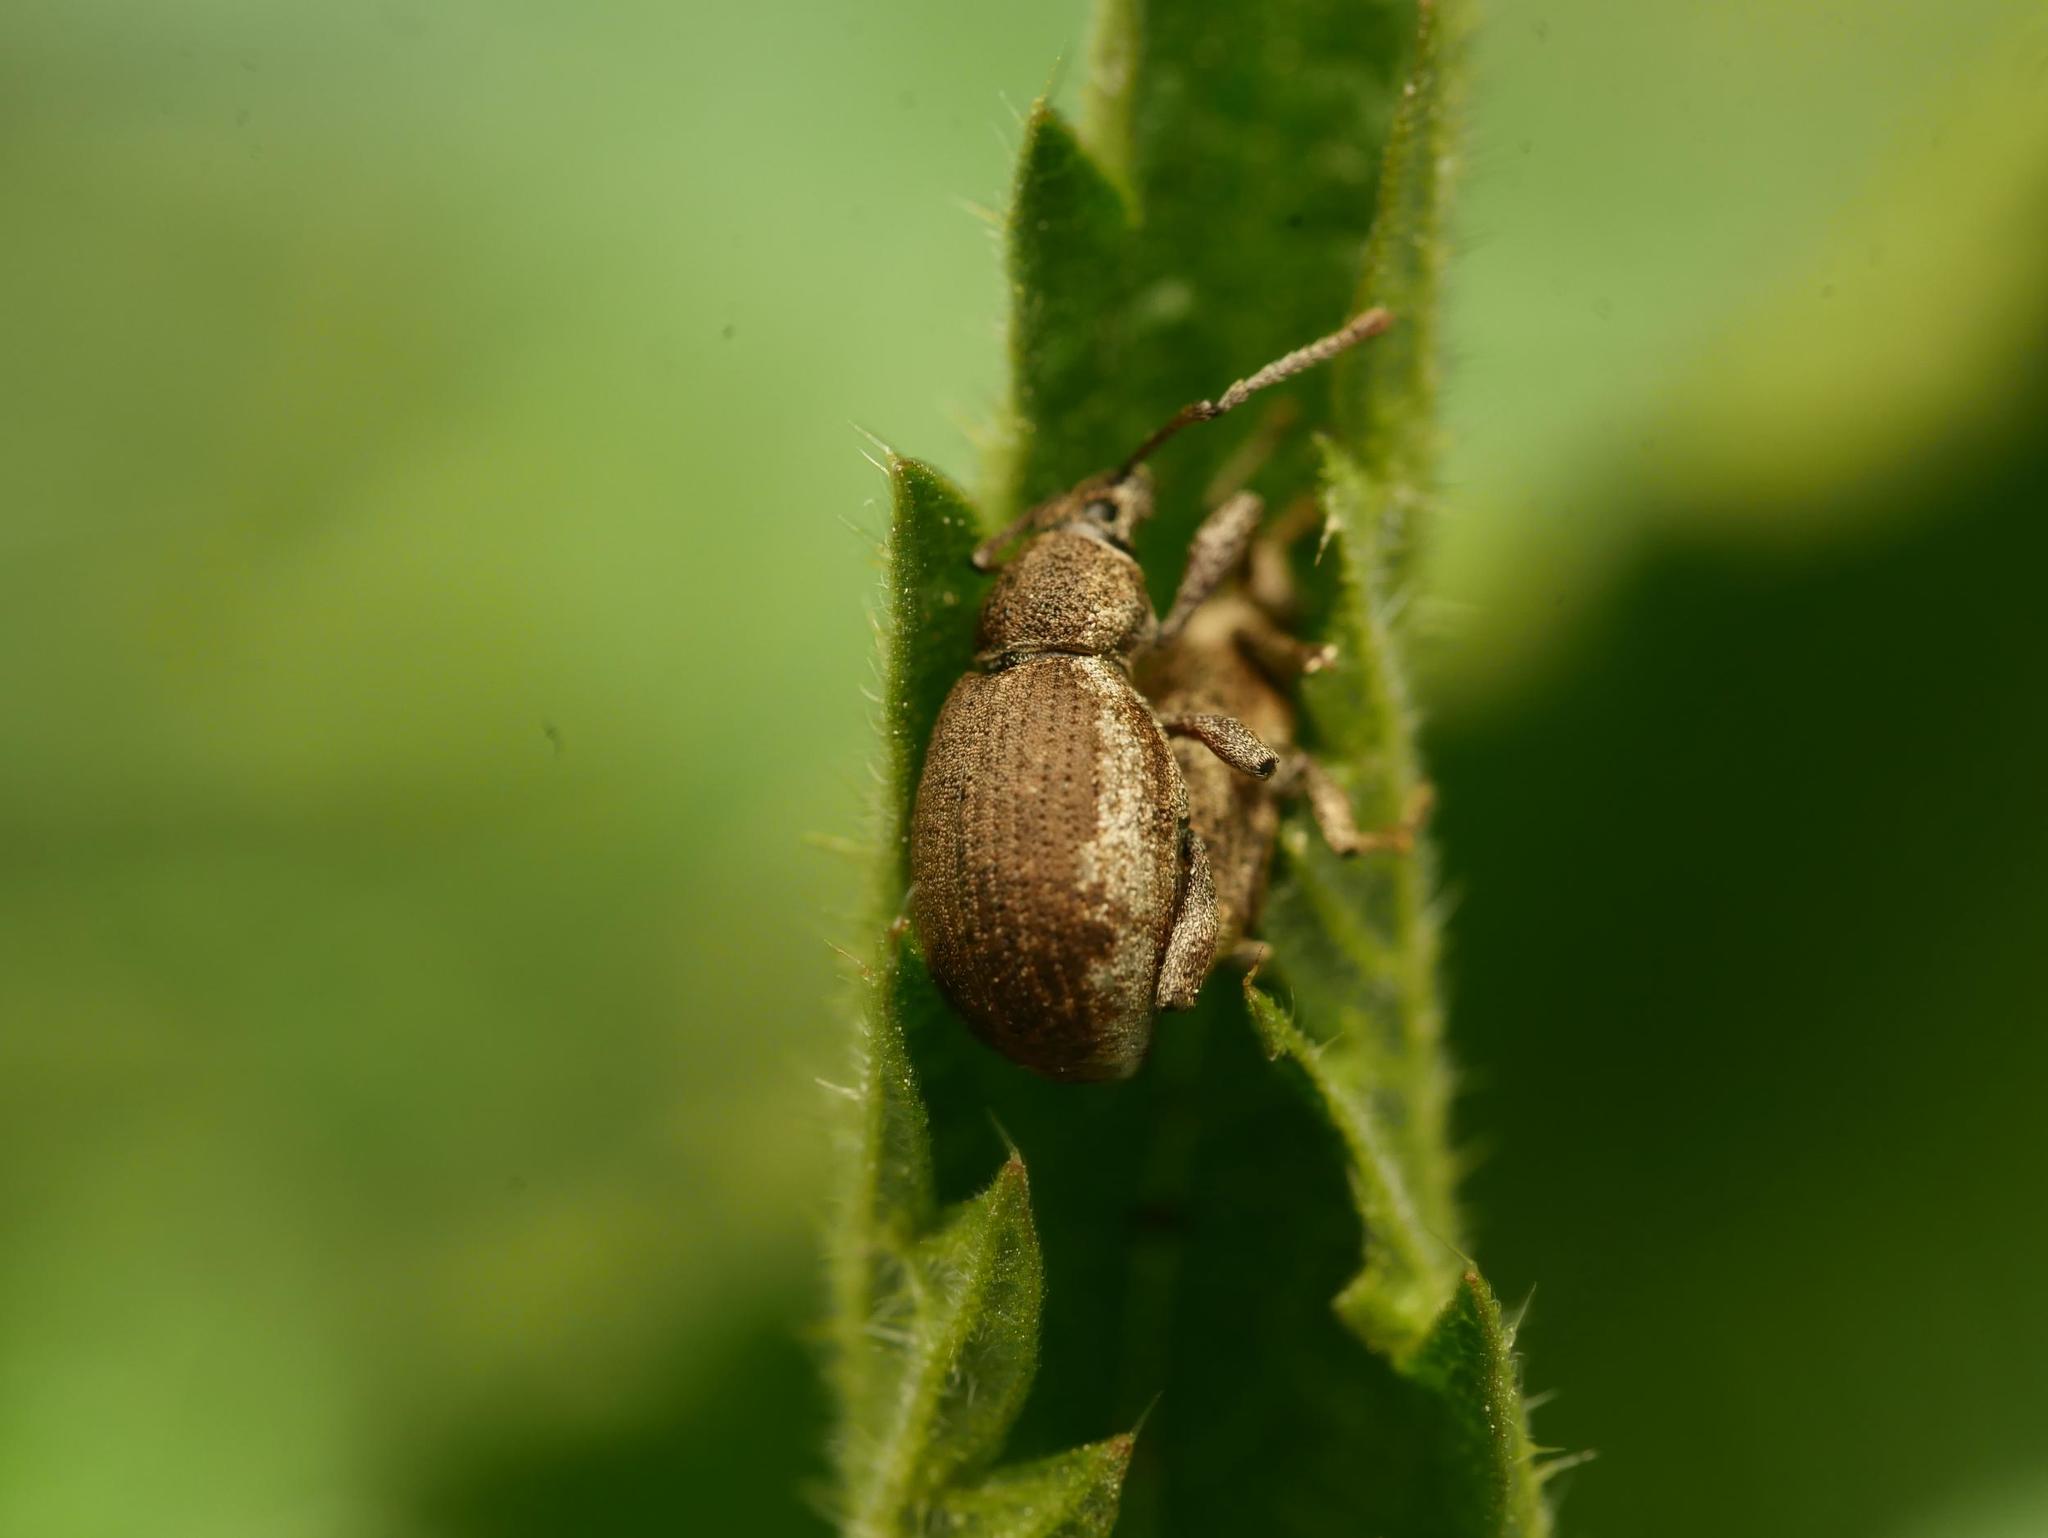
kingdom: Animalia
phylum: Arthropoda
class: Insecta
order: Coleoptera
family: Curculionidae
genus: Peritelus
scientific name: Peritelus sphaeroides
